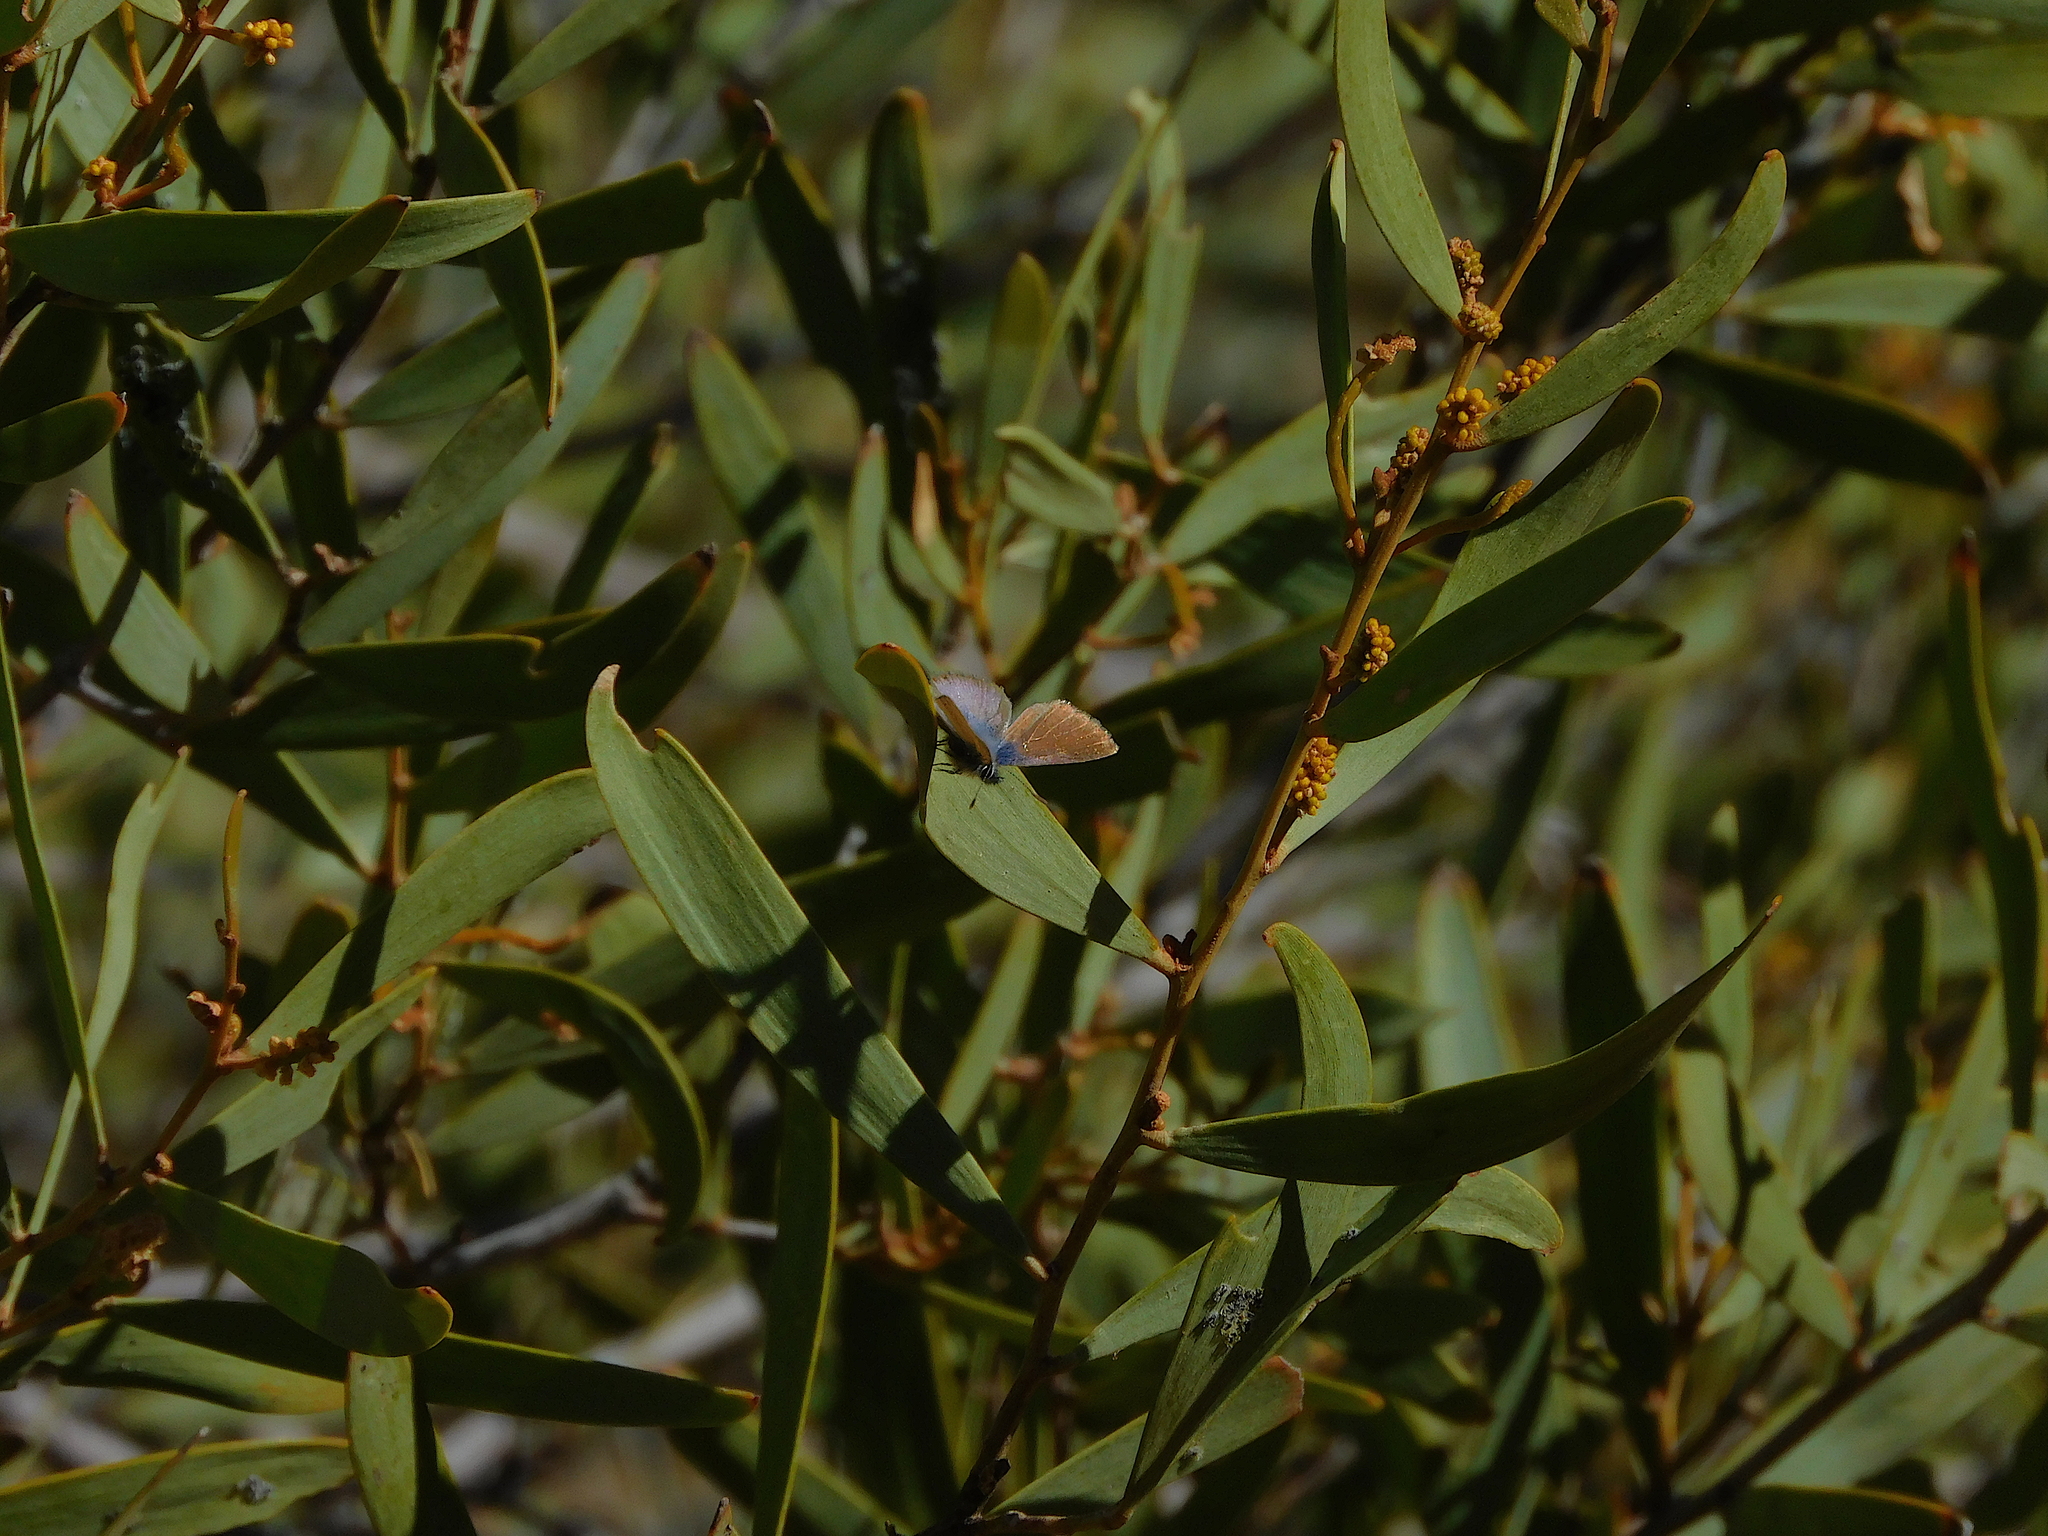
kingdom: Animalia
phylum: Arthropoda
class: Insecta
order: Lepidoptera
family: Lycaenidae
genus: Nacaduba
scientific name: Nacaduba biocellata
